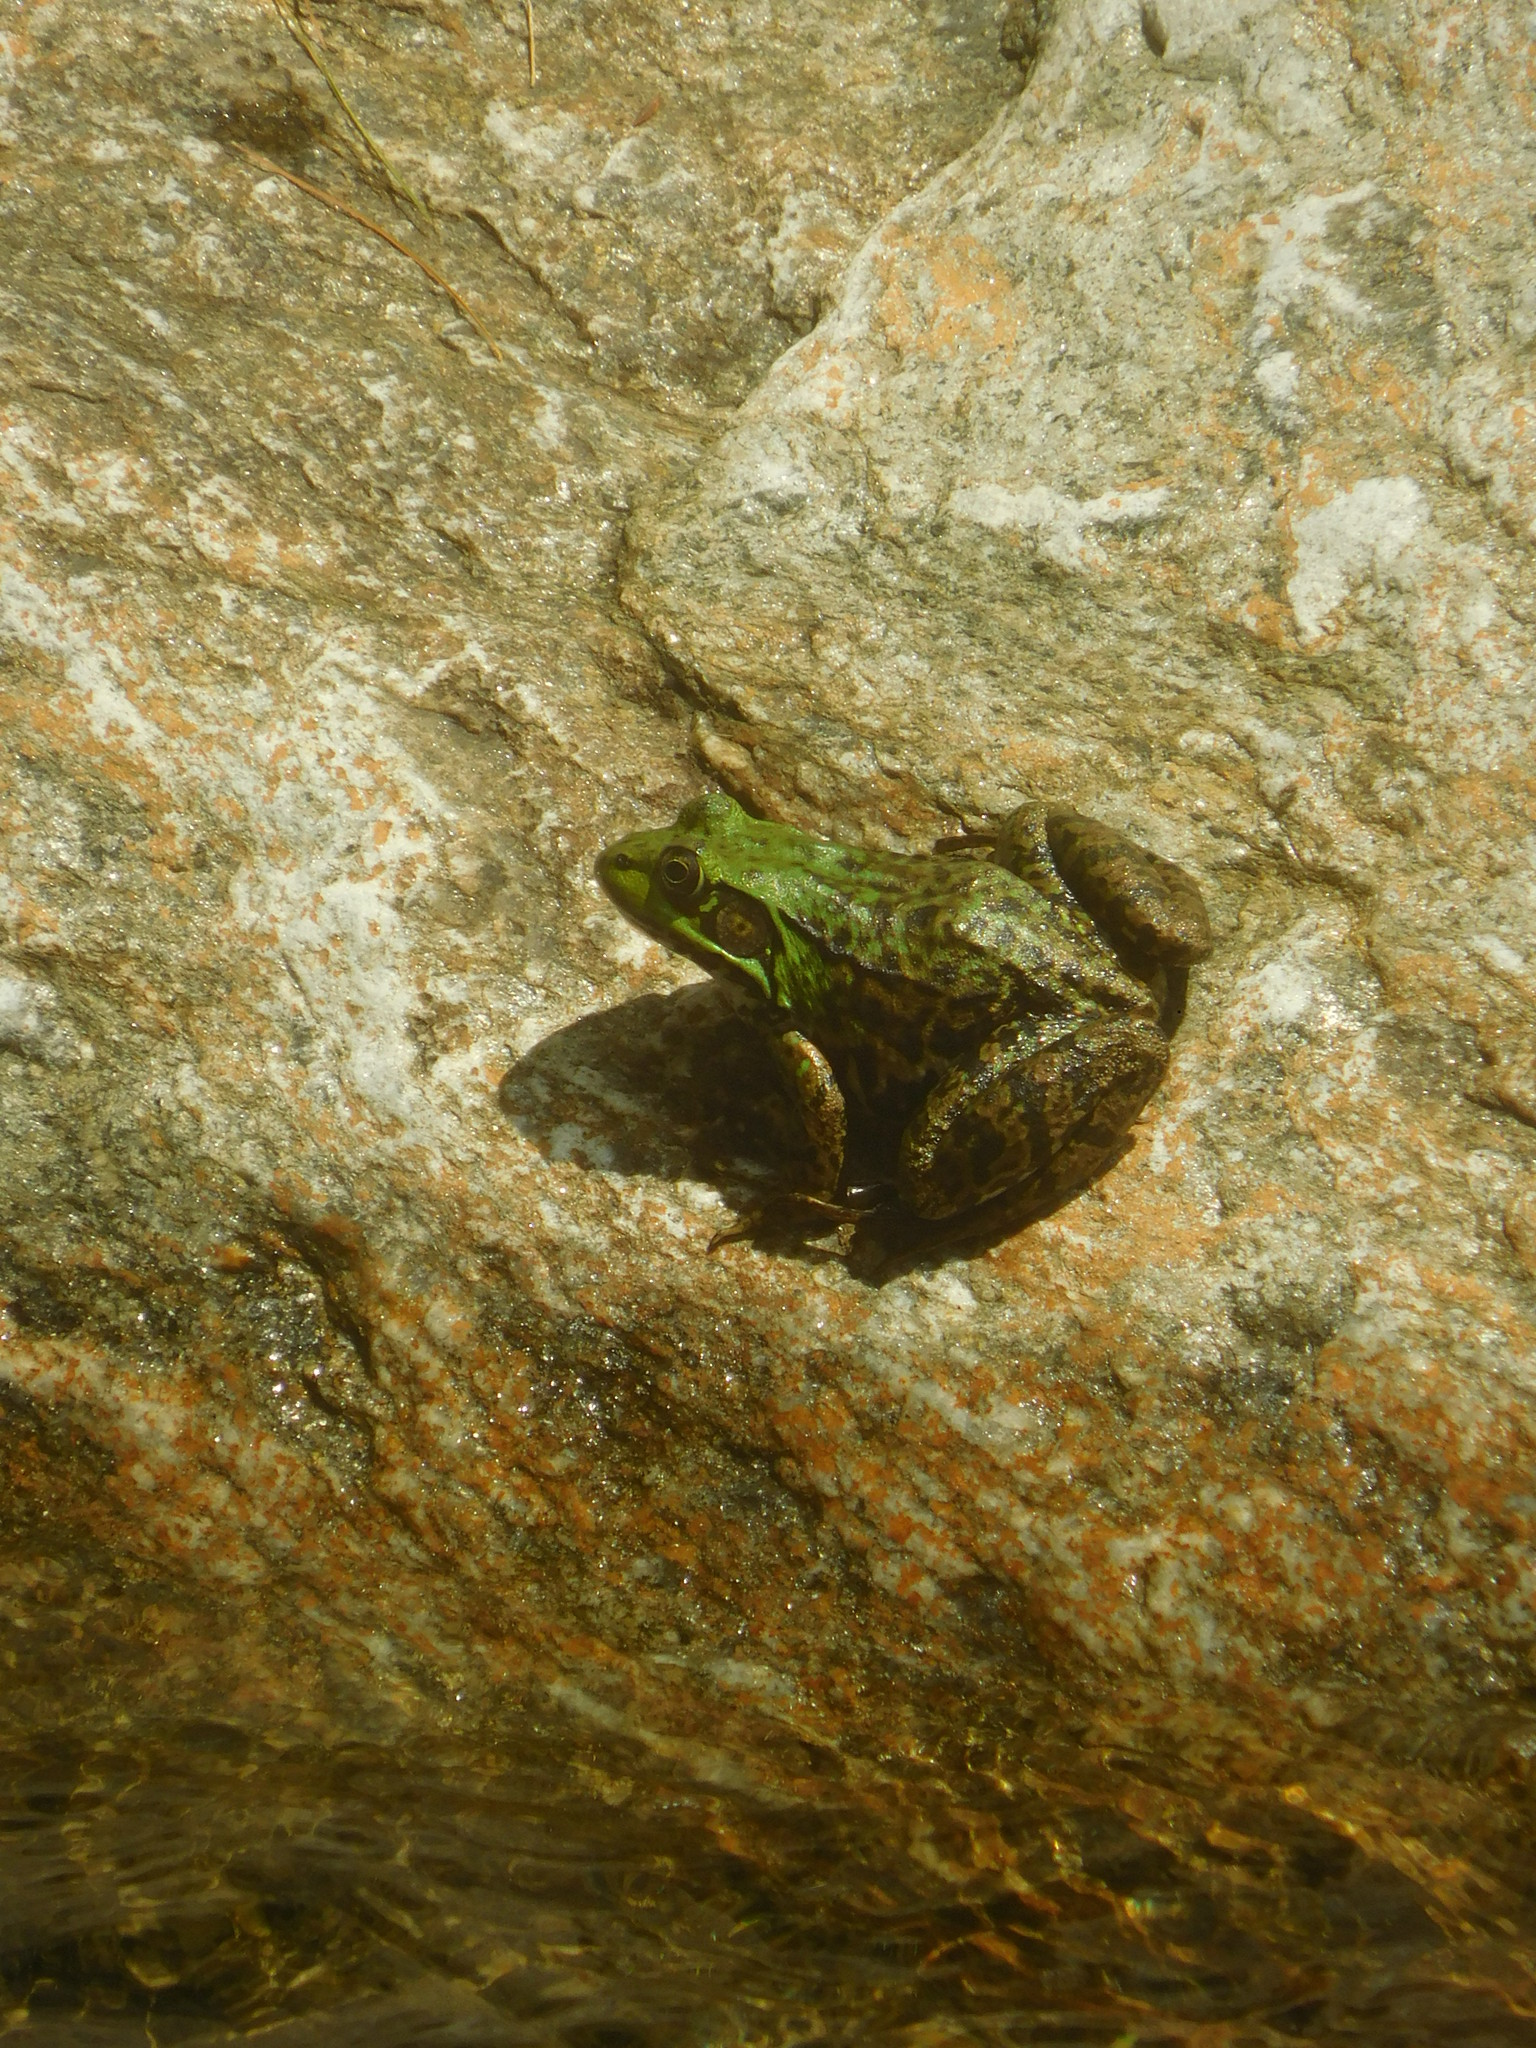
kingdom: Animalia
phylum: Chordata
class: Amphibia
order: Anura
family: Ranidae
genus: Lithobates
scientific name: Lithobates clamitans
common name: Green frog
